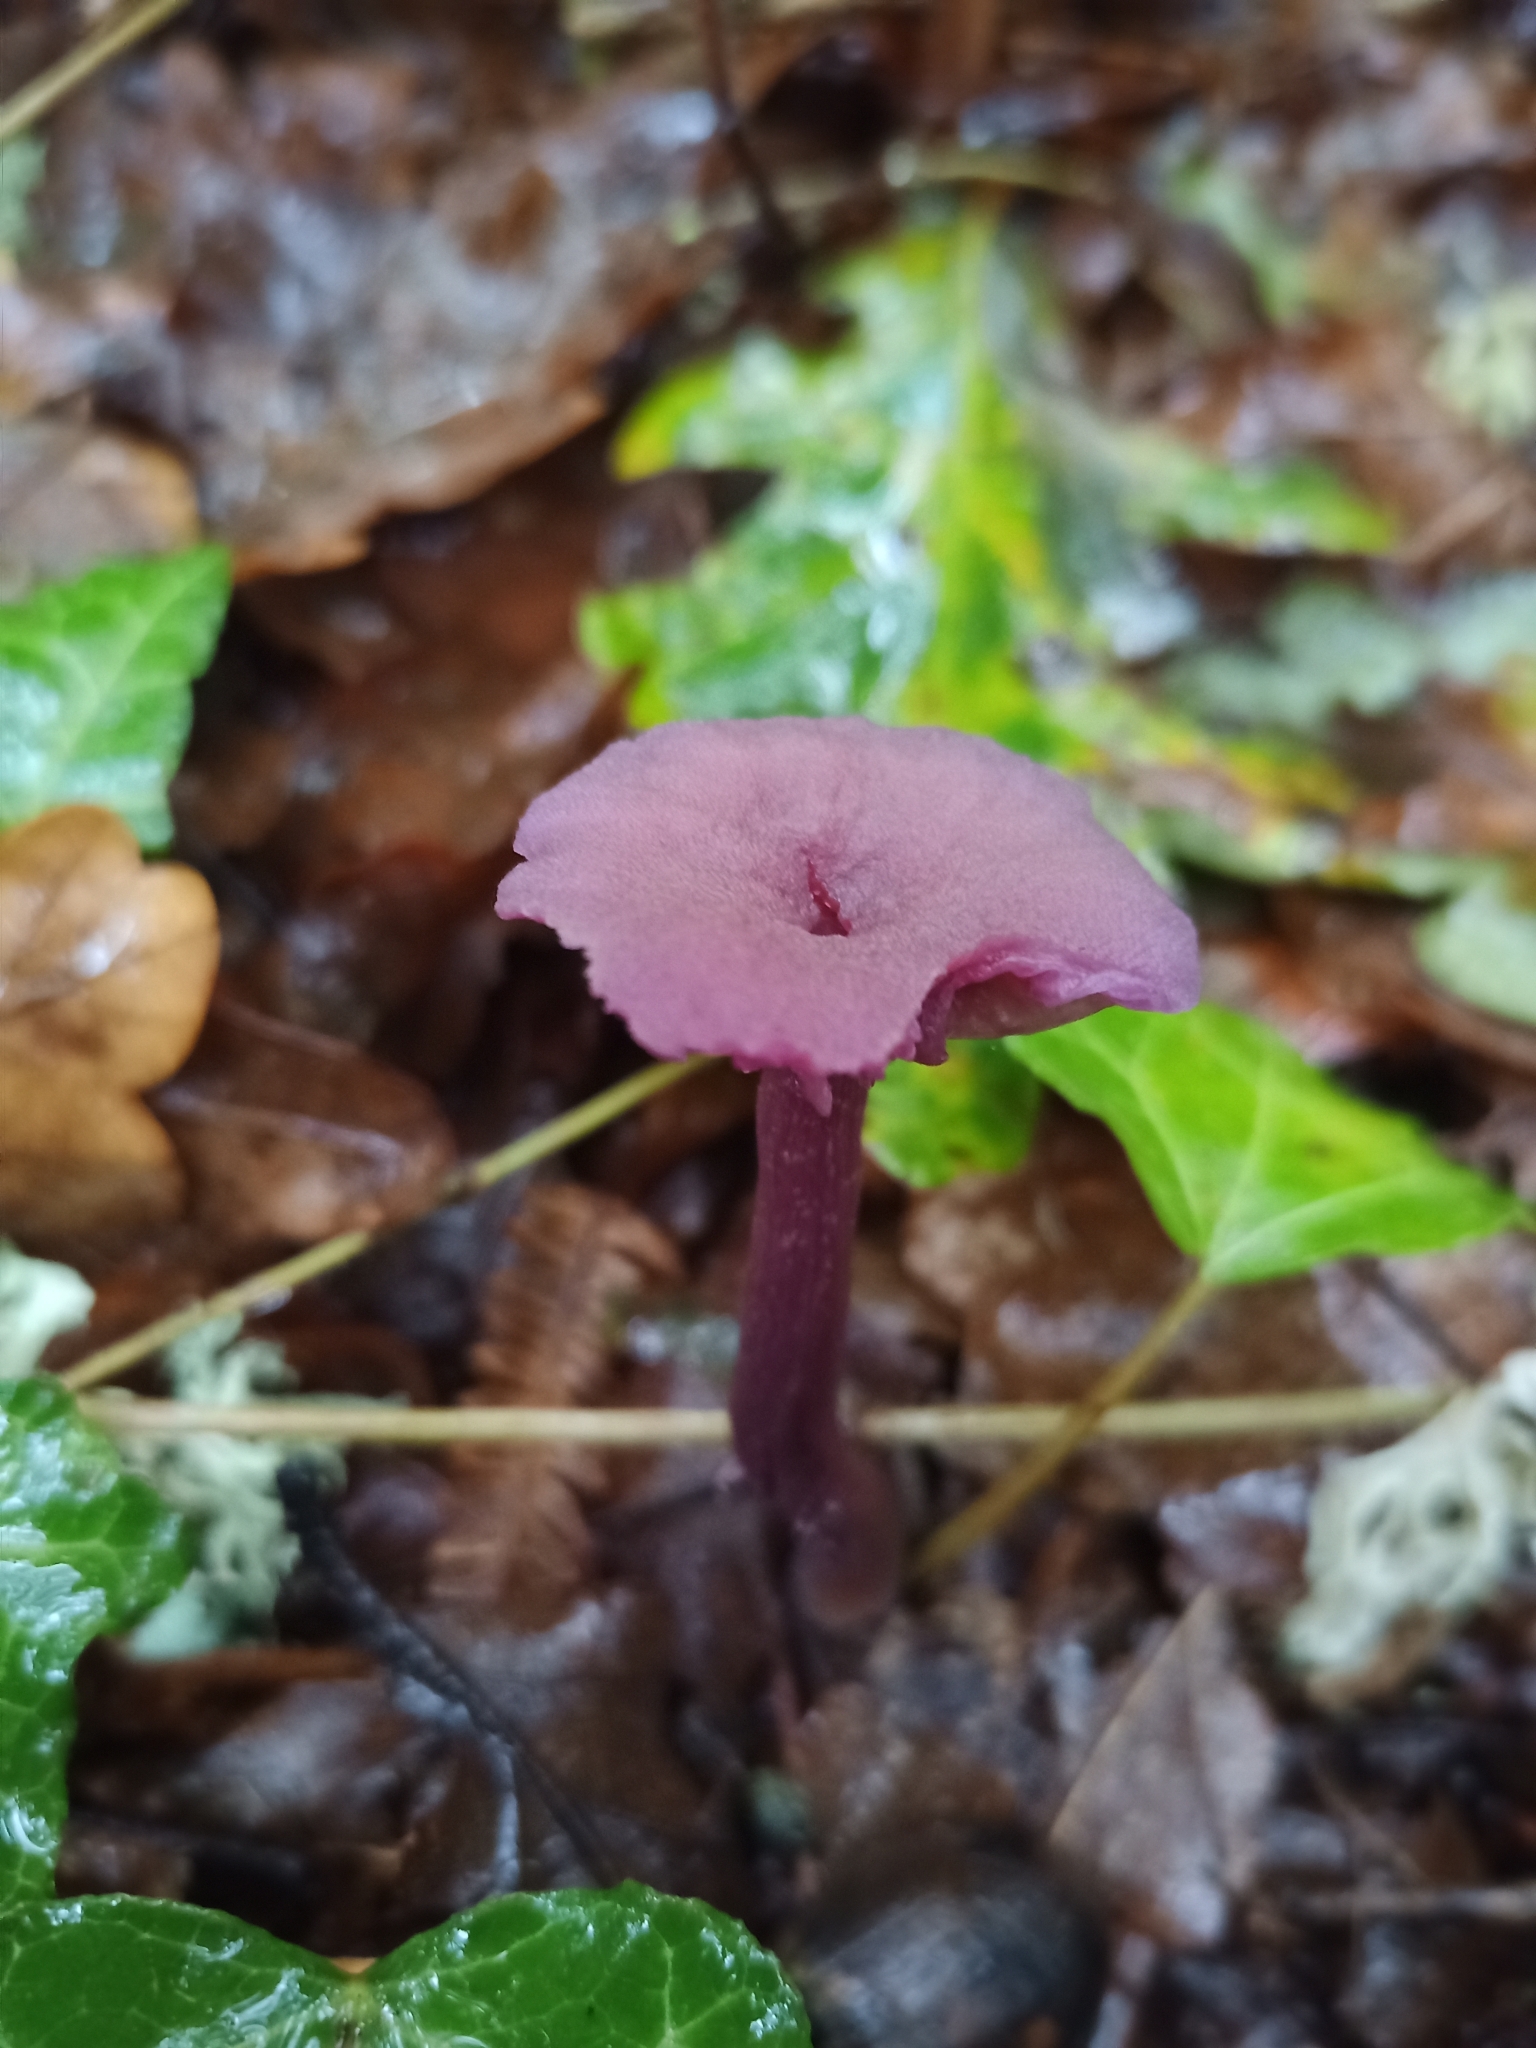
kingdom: Fungi
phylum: Basidiomycota
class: Agaricomycetes
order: Agaricales
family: Hydnangiaceae
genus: Laccaria
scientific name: Laccaria amethystina
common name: Amethyst deceiver
